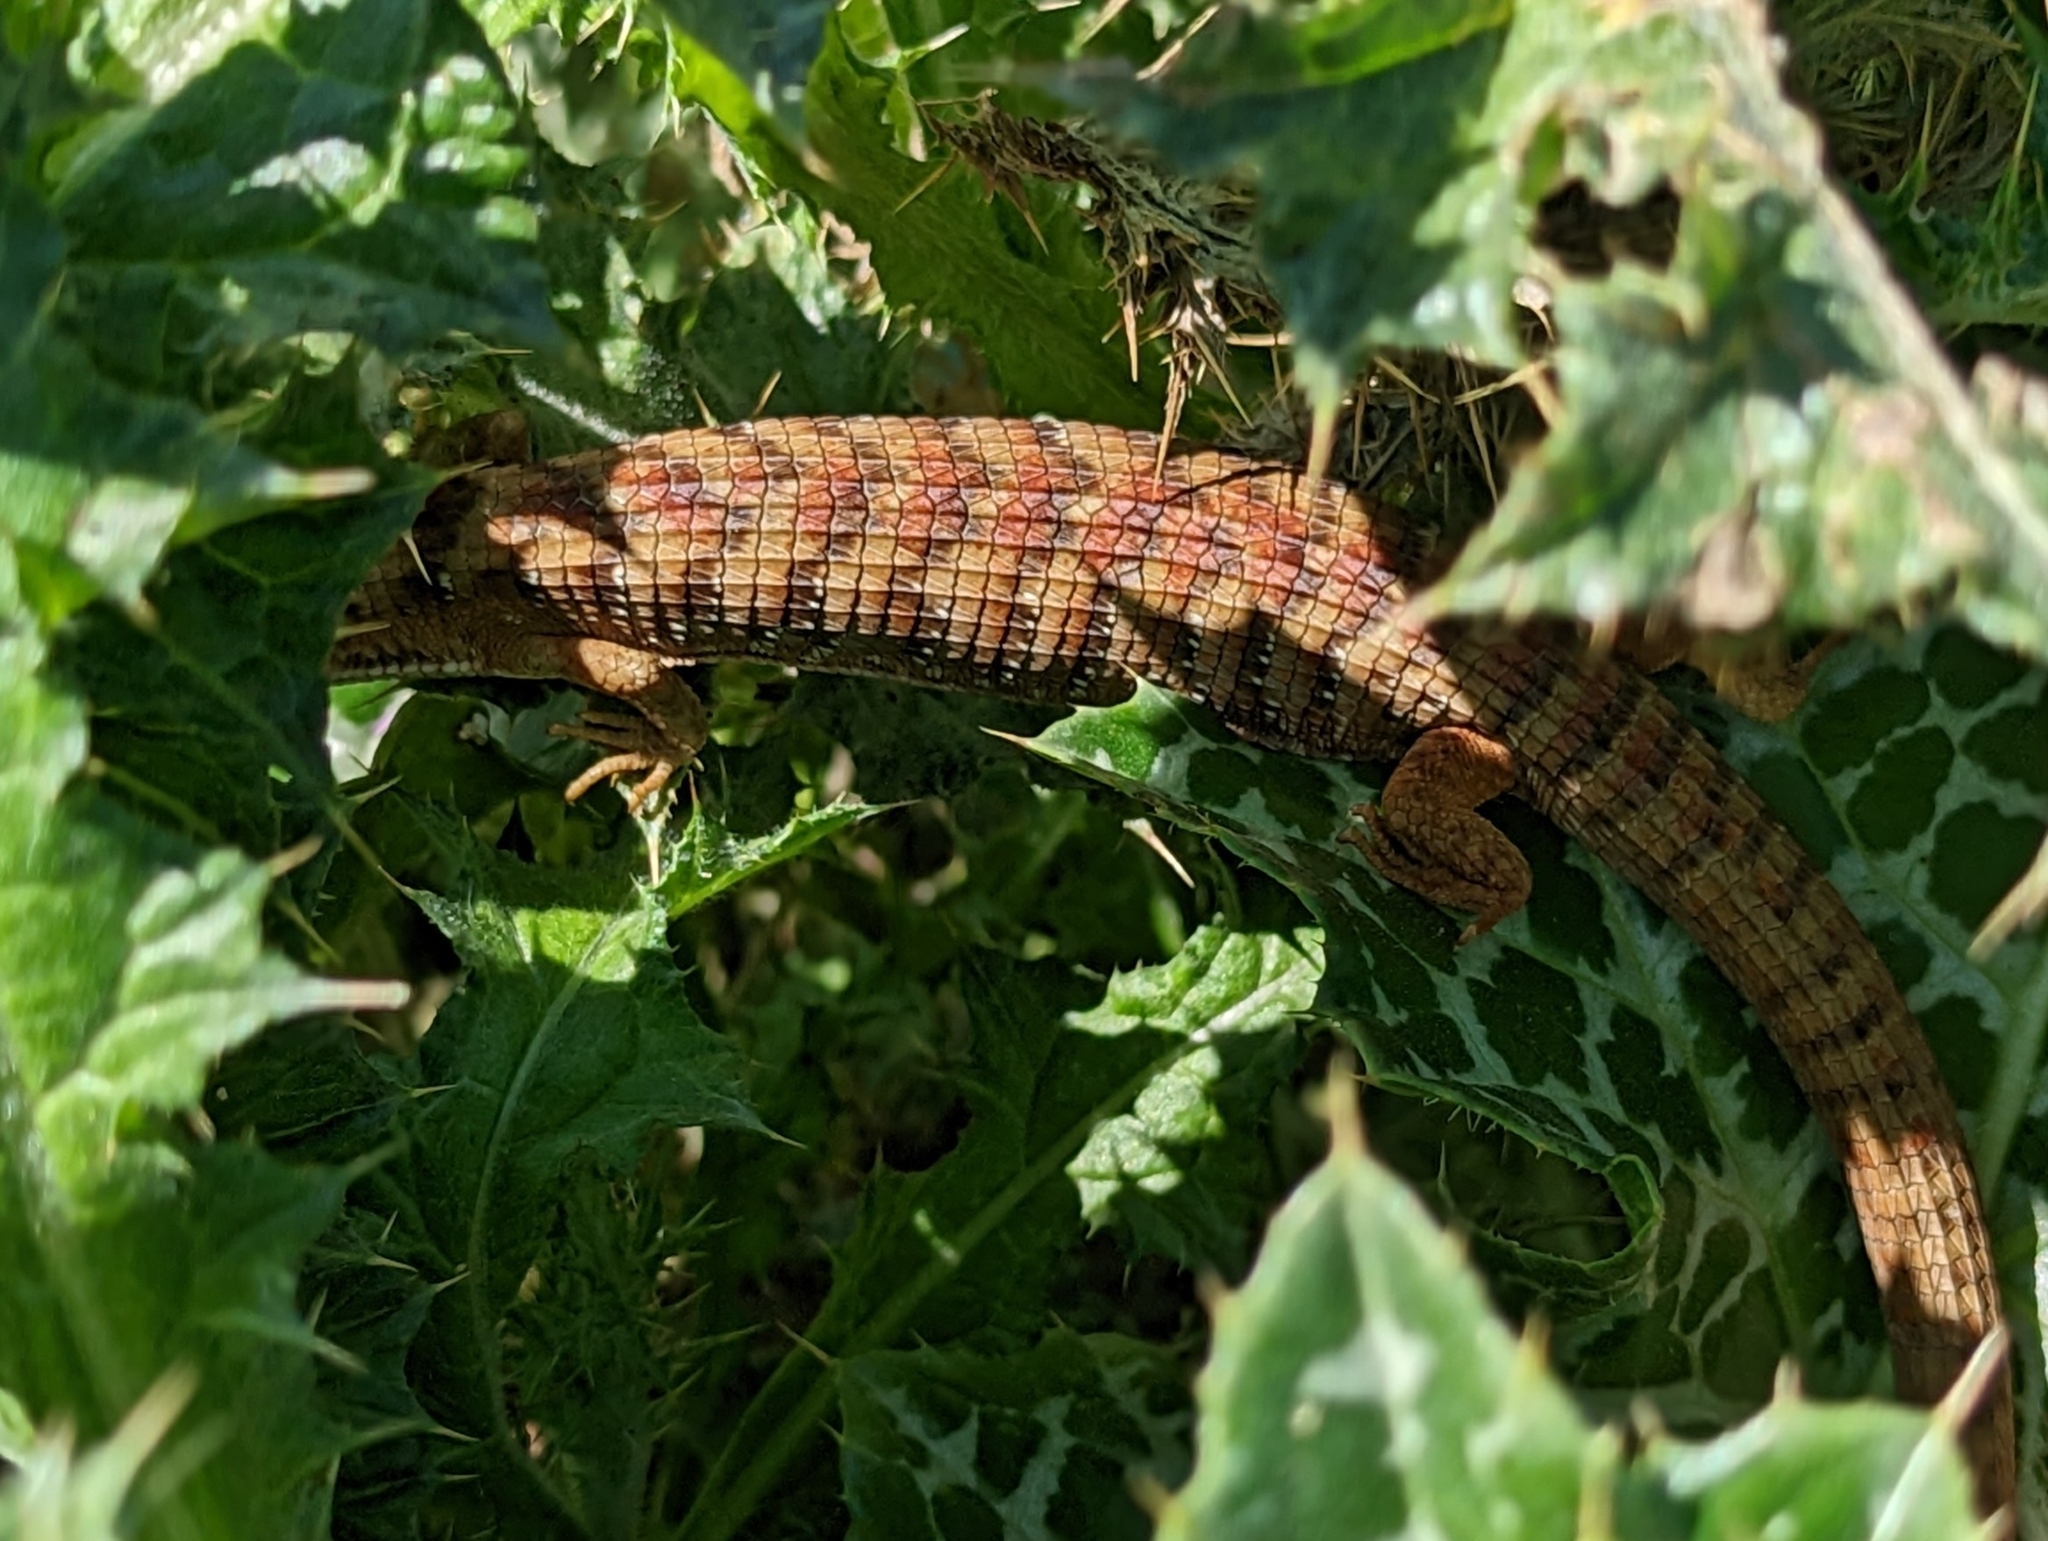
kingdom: Animalia
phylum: Chordata
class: Squamata
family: Anguidae
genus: Elgaria
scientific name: Elgaria multicarinata
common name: Southern alligator lizard
